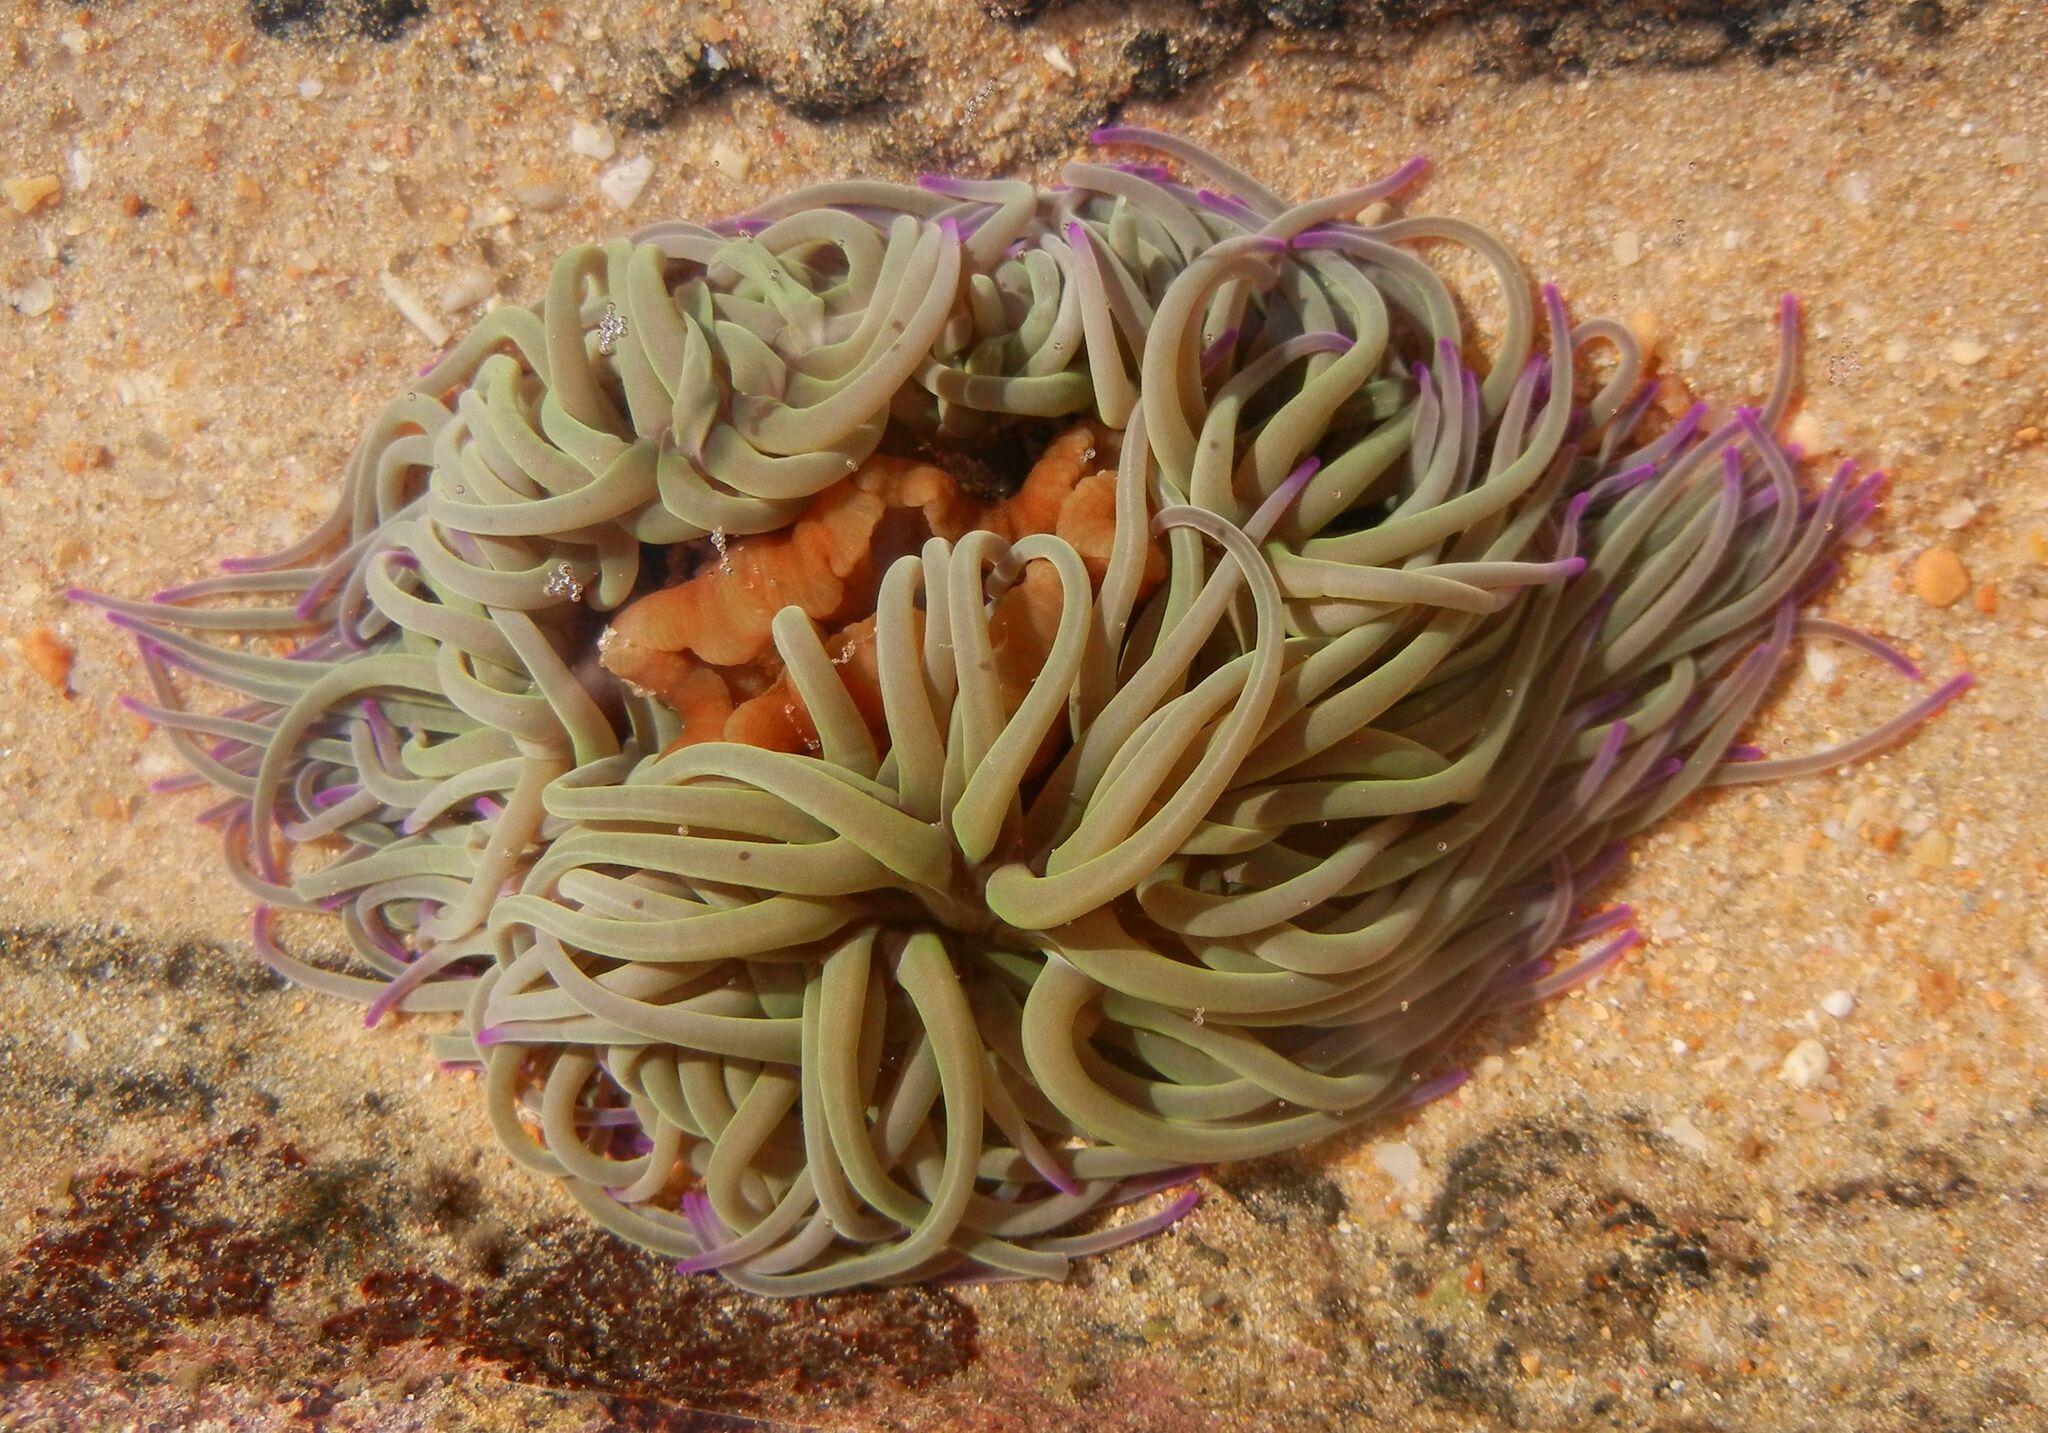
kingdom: Animalia
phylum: Cnidaria
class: Anthozoa
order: Actiniaria
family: Actiniidae
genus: Anemonia
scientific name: Anemonia viridis
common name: Snakelocks anemone
